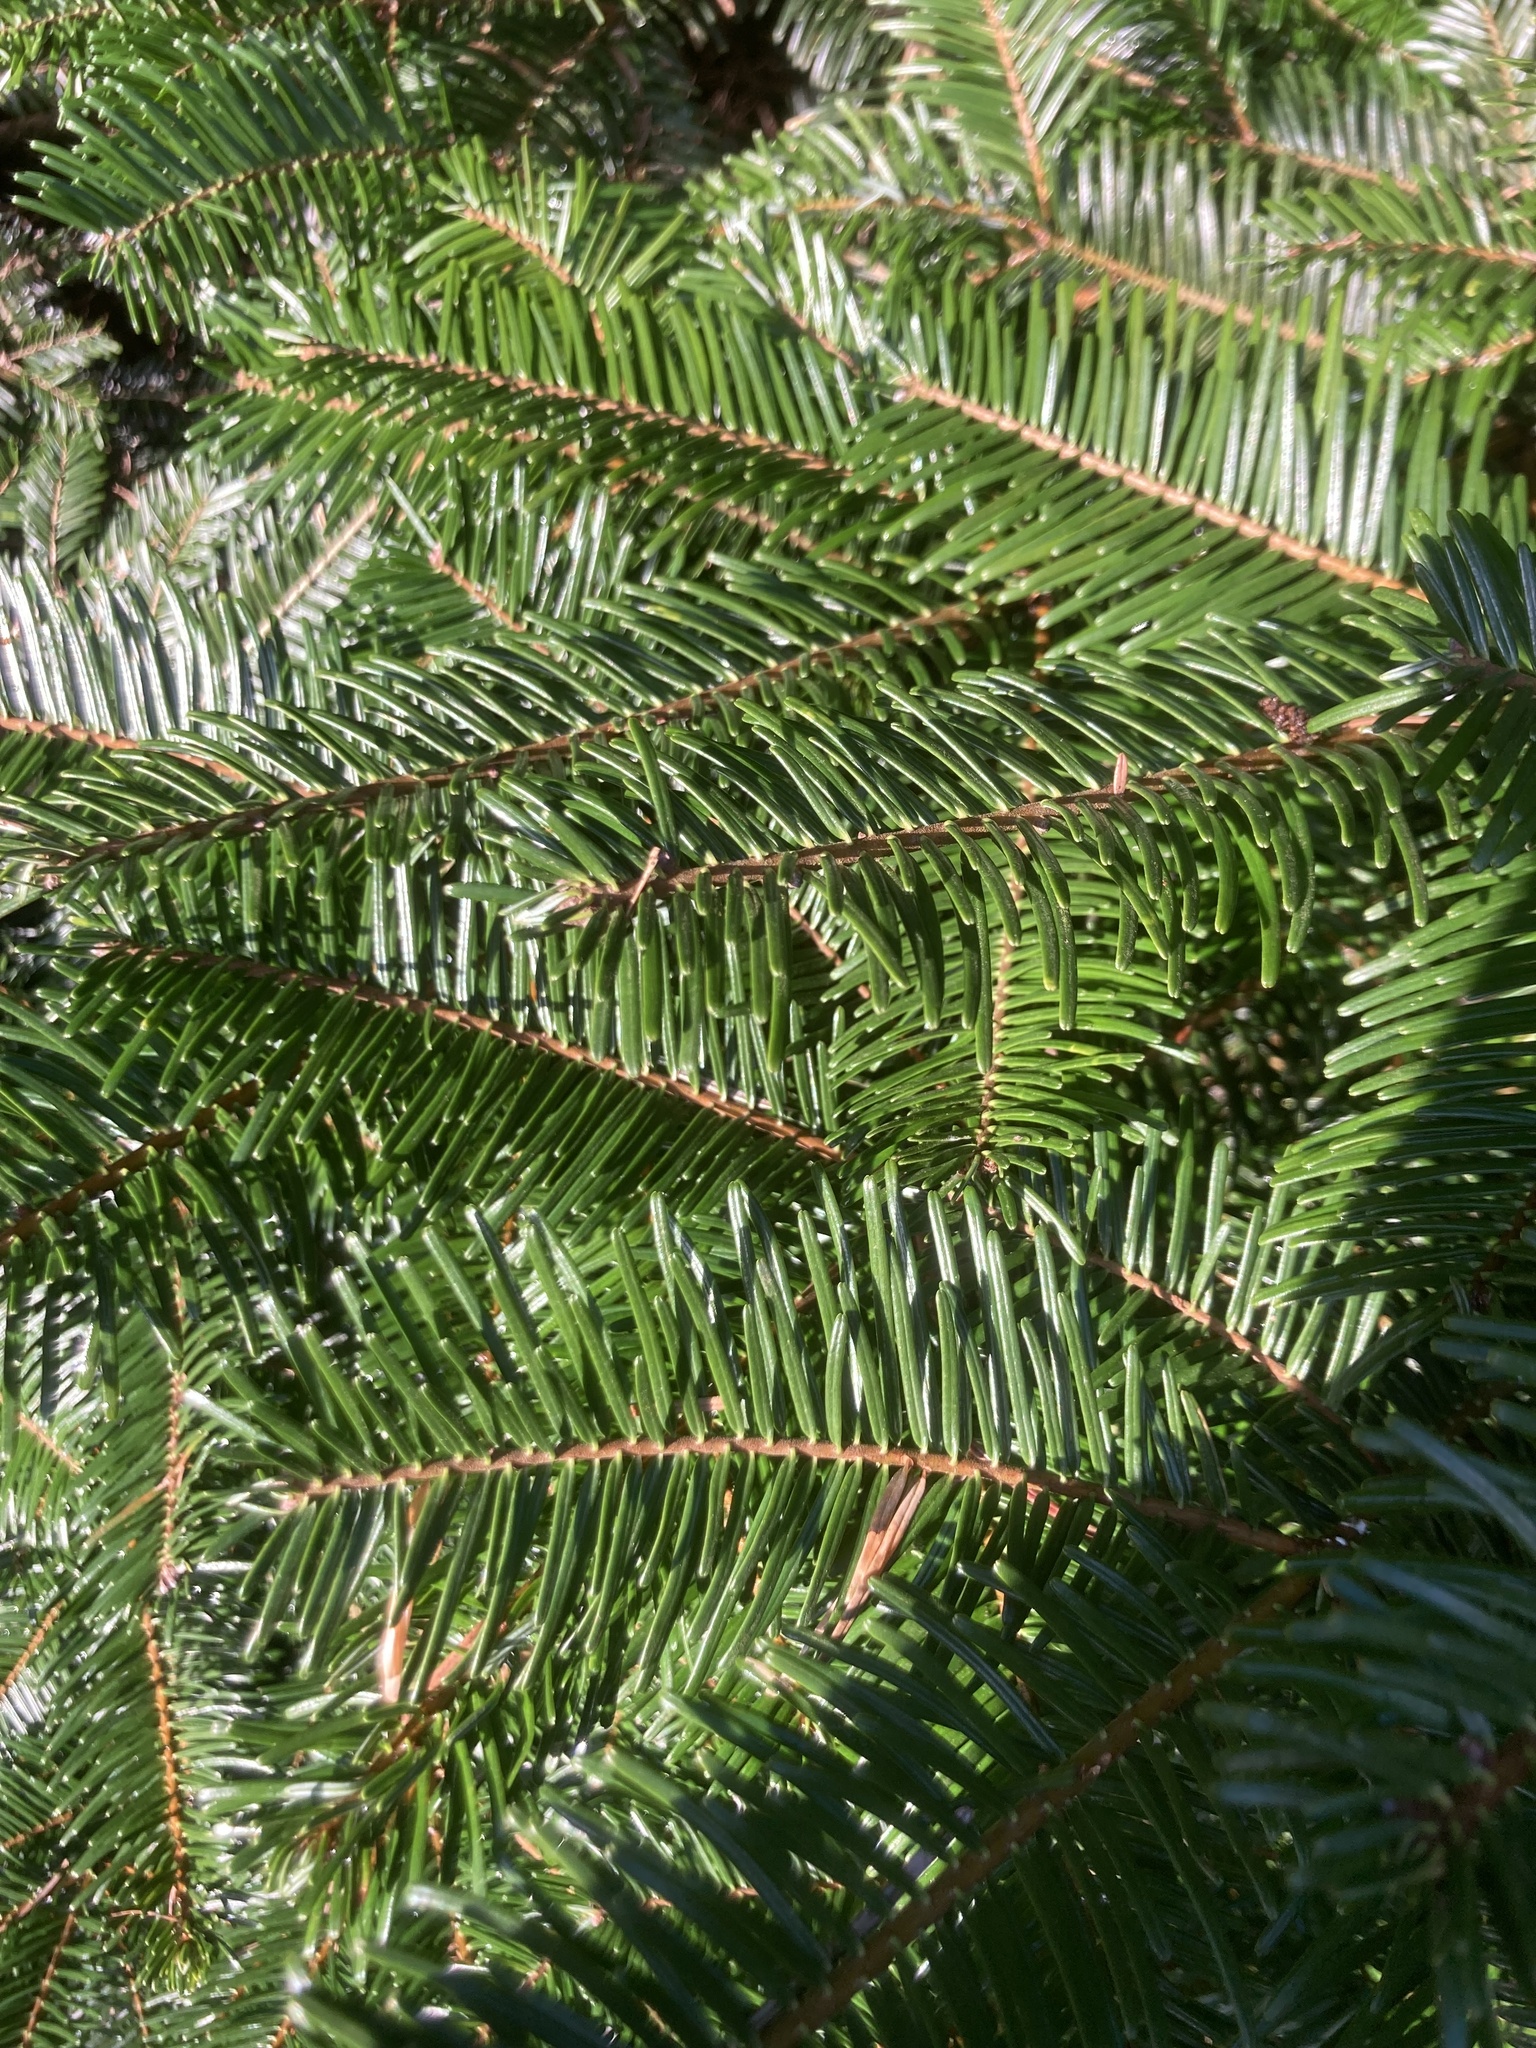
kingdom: Plantae
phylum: Tracheophyta
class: Pinopsida
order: Pinales
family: Pinaceae
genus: Abies
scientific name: Abies grandis
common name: Giant fir
